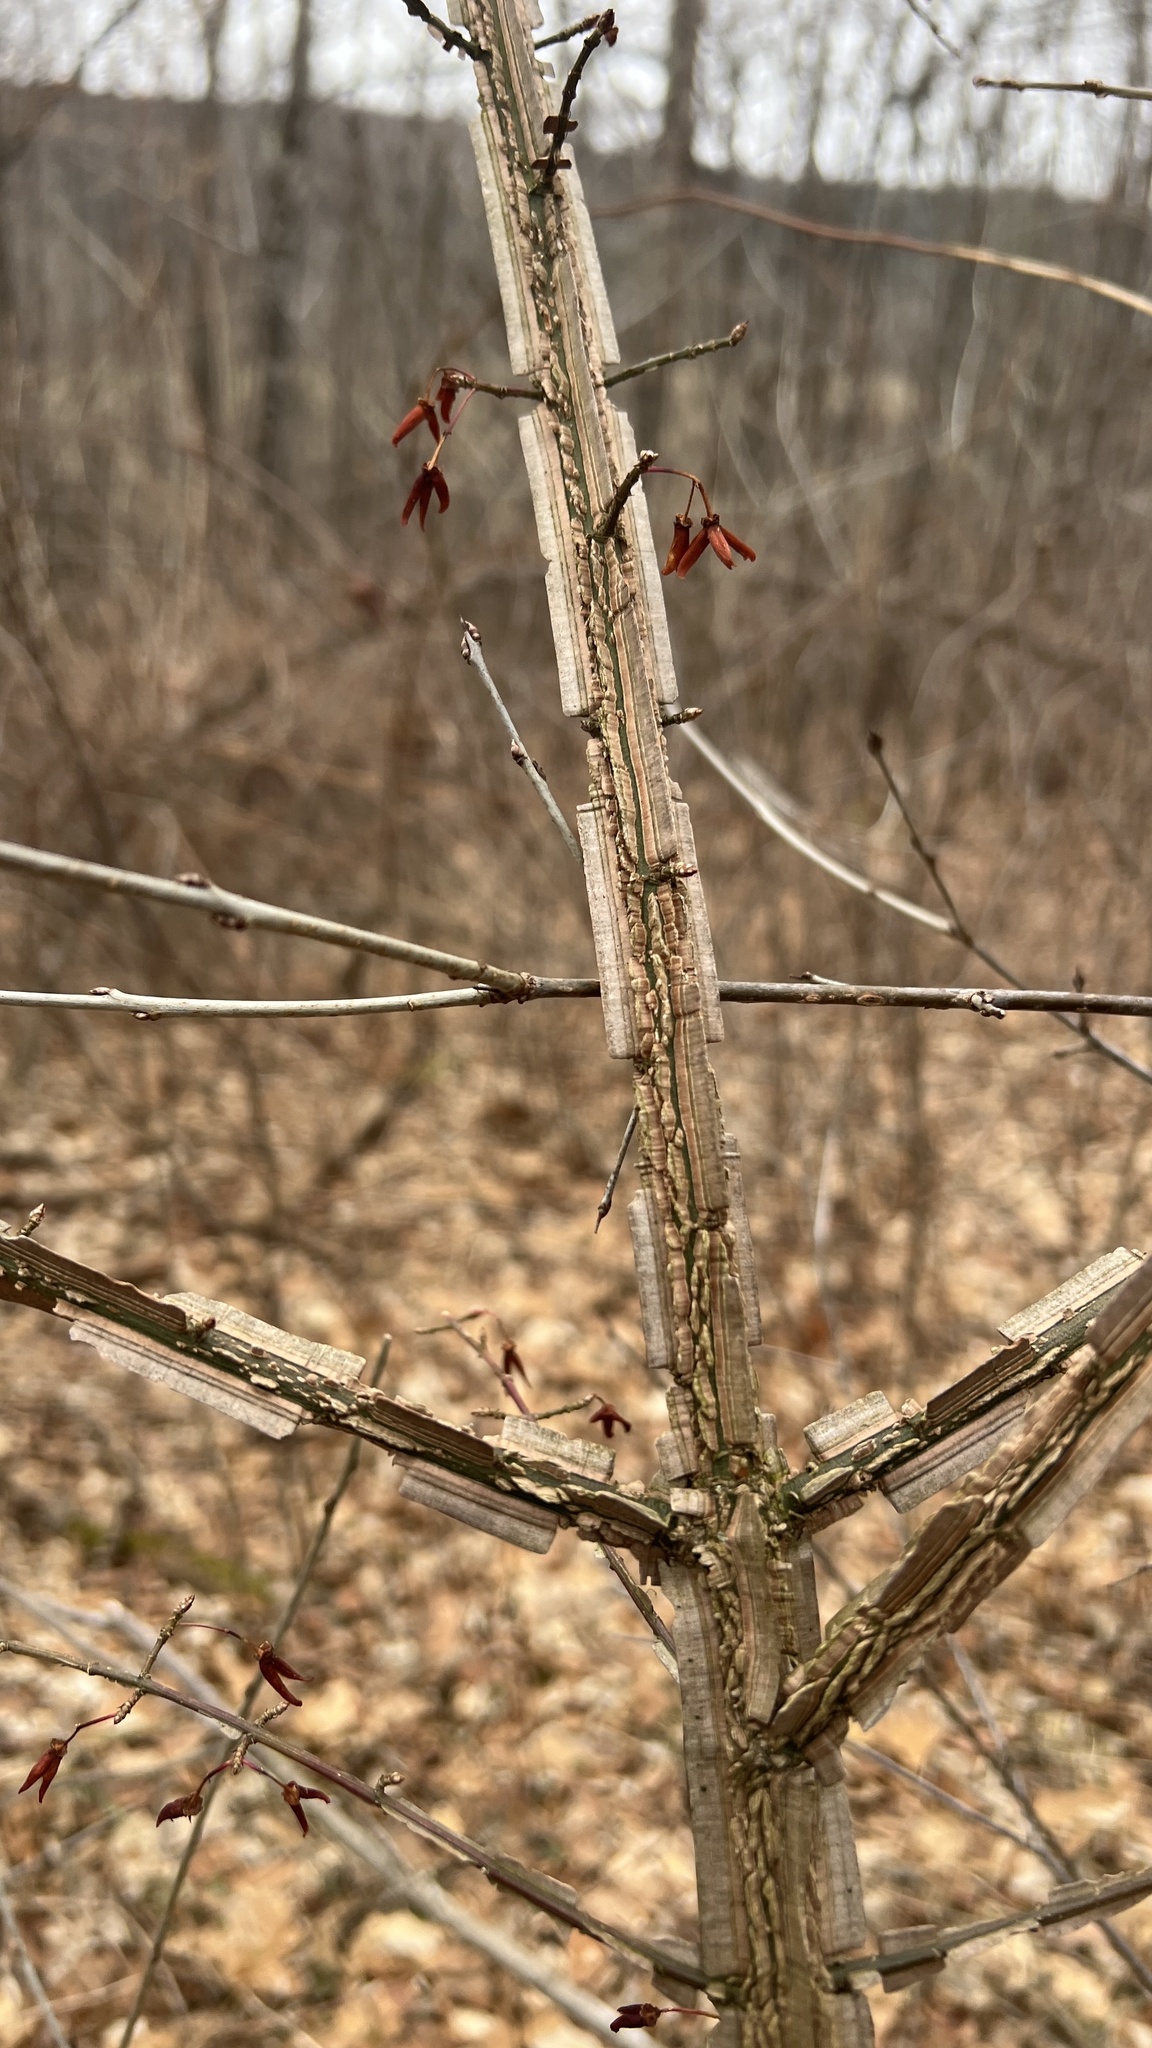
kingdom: Plantae
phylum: Tracheophyta
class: Magnoliopsida
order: Celastrales
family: Celastraceae
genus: Euonymus
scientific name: Euonymus alatus
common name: Winged euonymus
